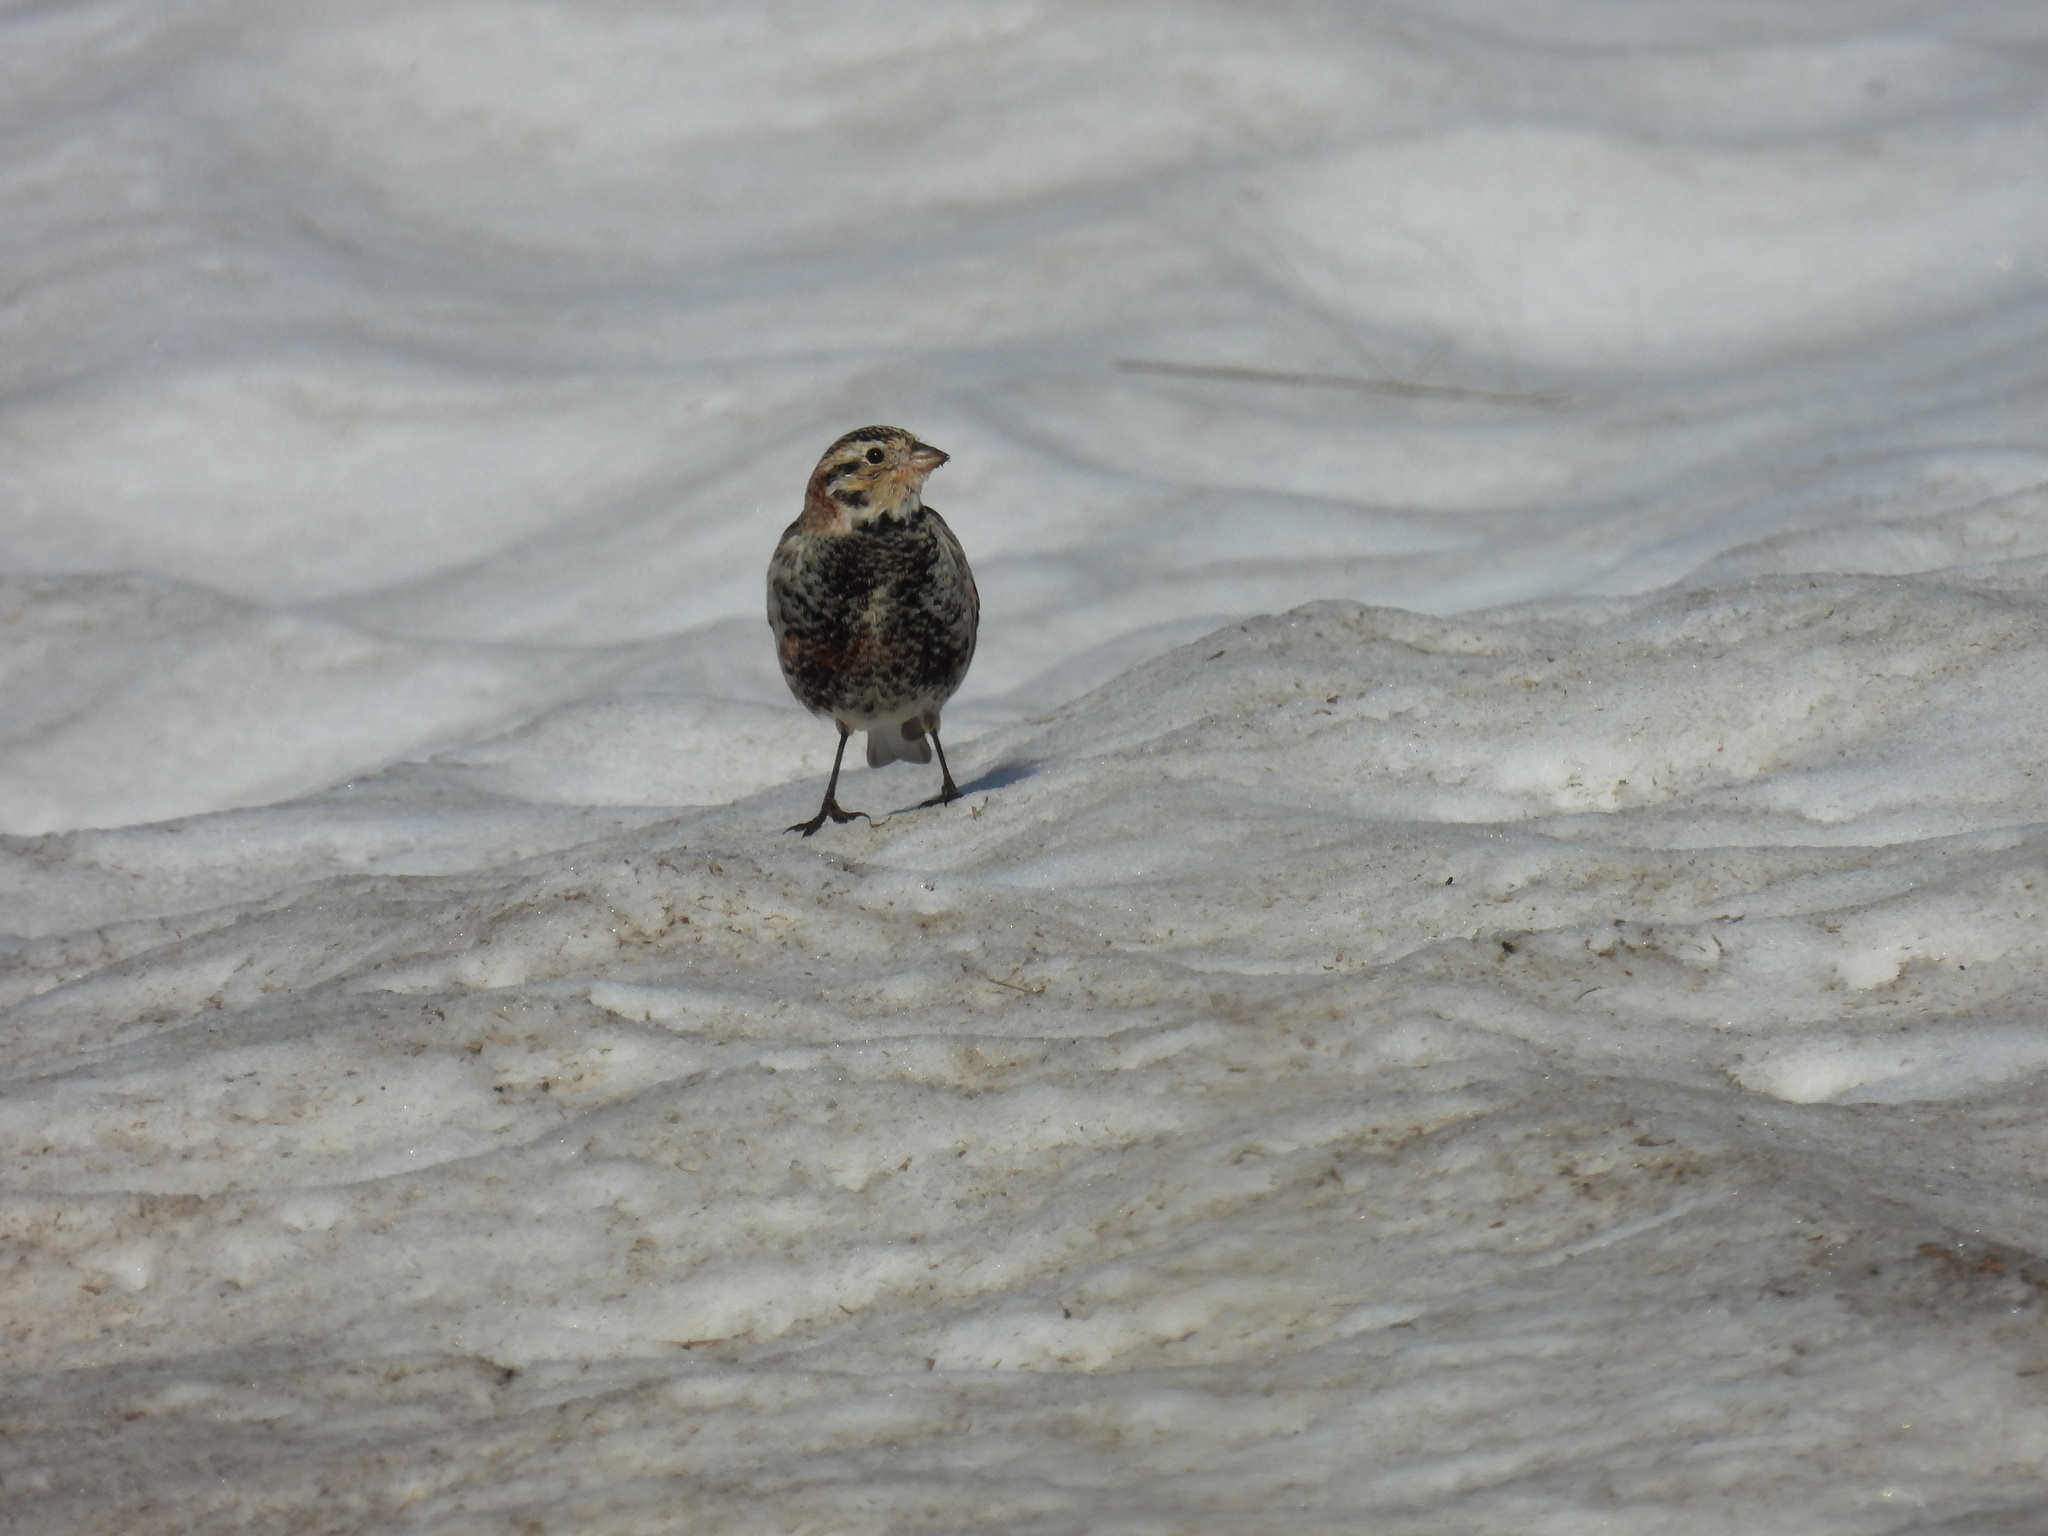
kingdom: Animalia
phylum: Chordata
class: Aves
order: Passeriformes
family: Calcariidae
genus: Calcarius
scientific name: Calcarius ornatus
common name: Chestnut-collared longspur
